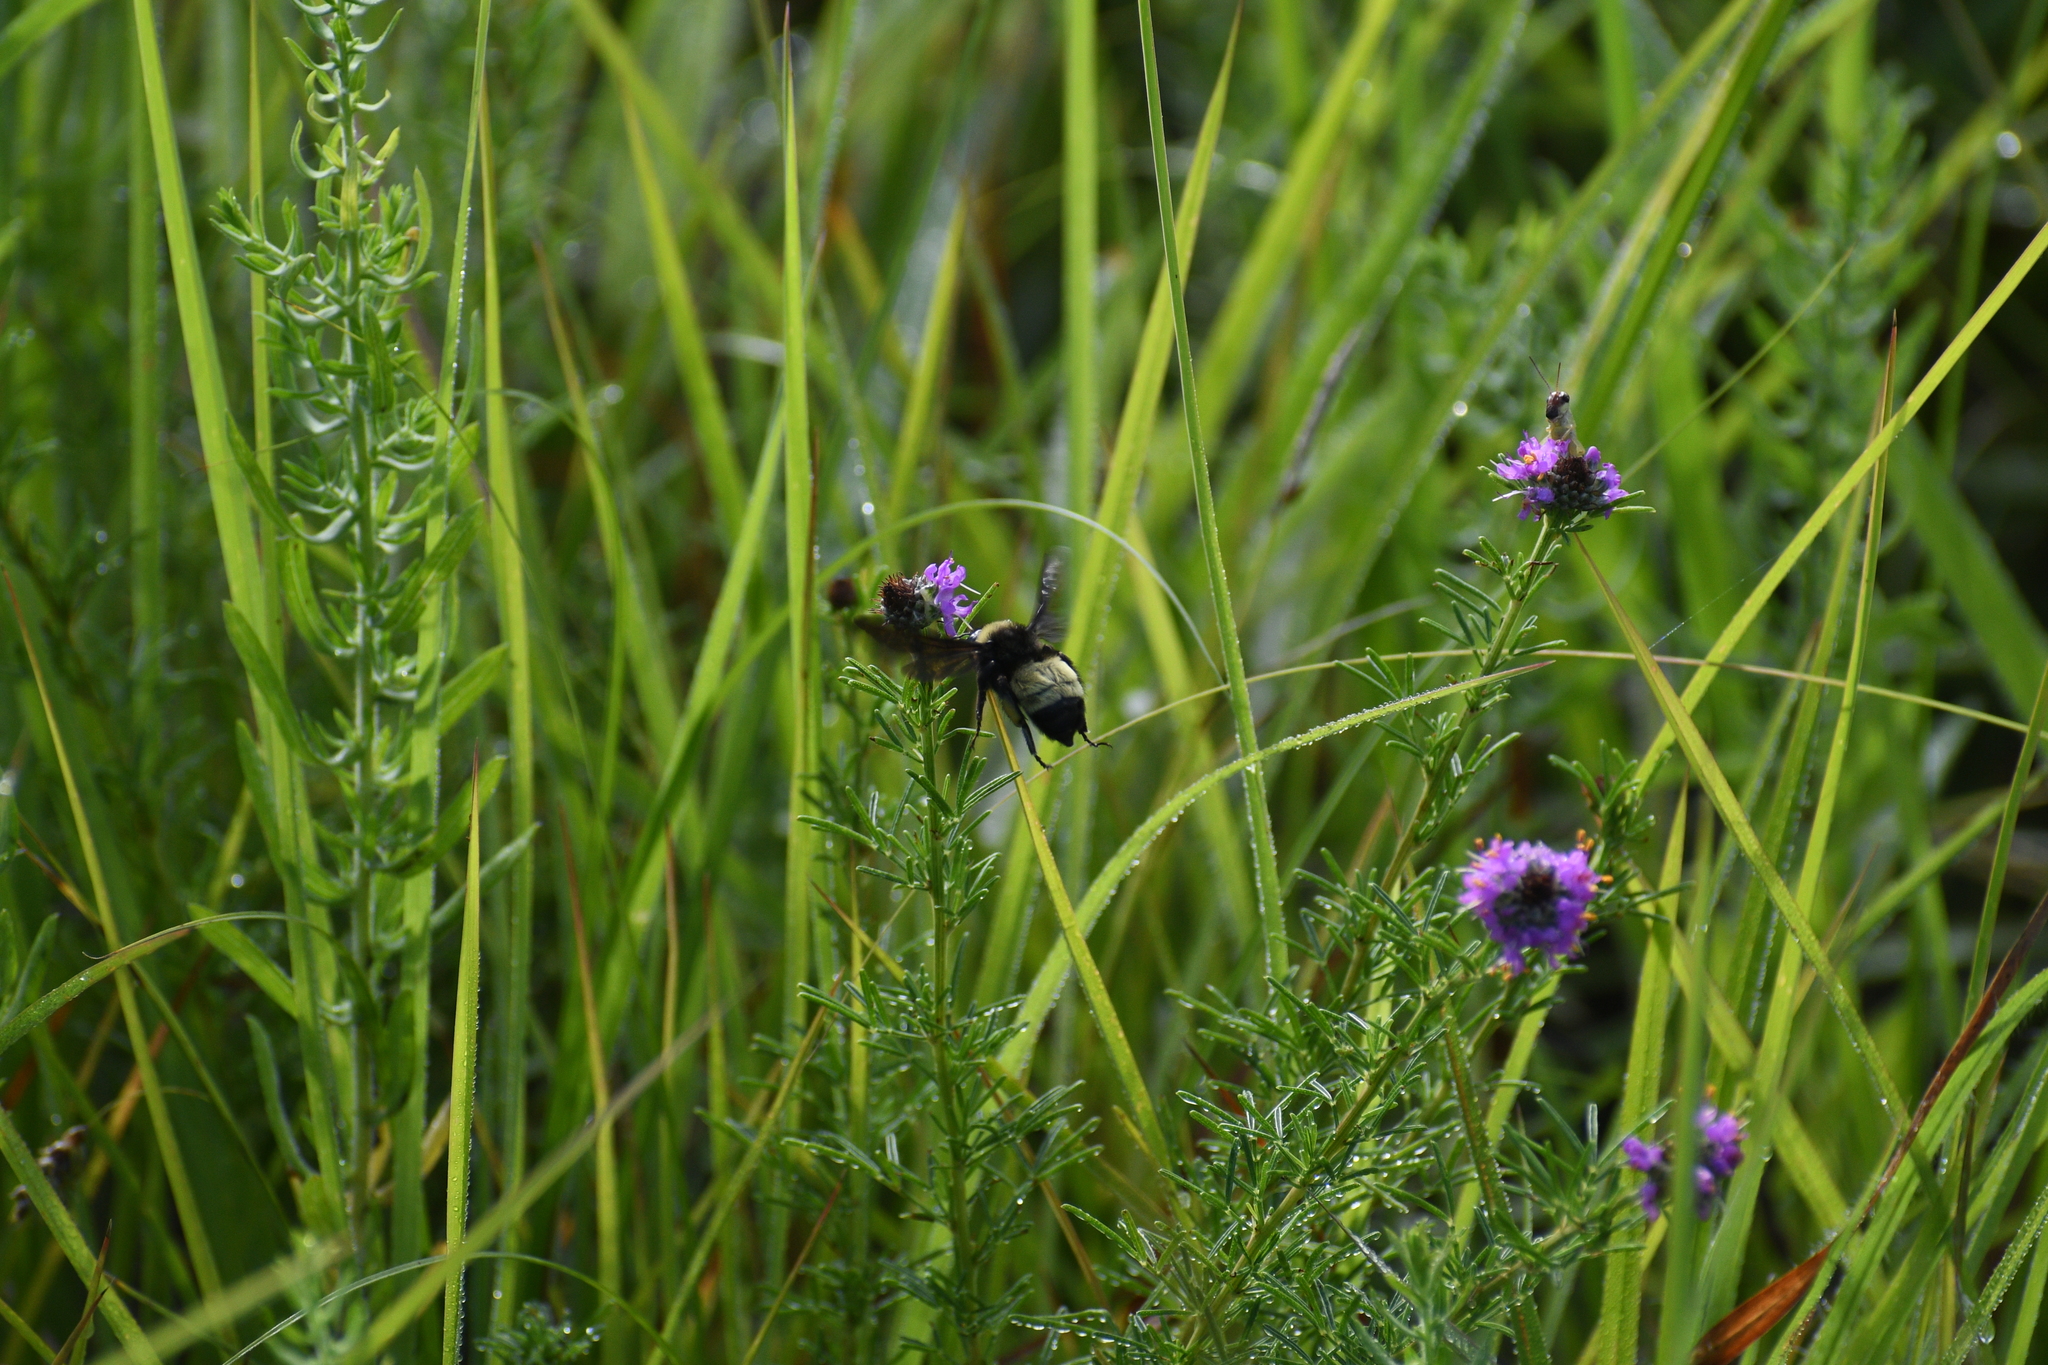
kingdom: Animalia
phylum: Arthropoda
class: Insecta
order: Hymenoptera
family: Apidae
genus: Bombus
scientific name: Bombus pensylvanicus
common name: Bumble bee
